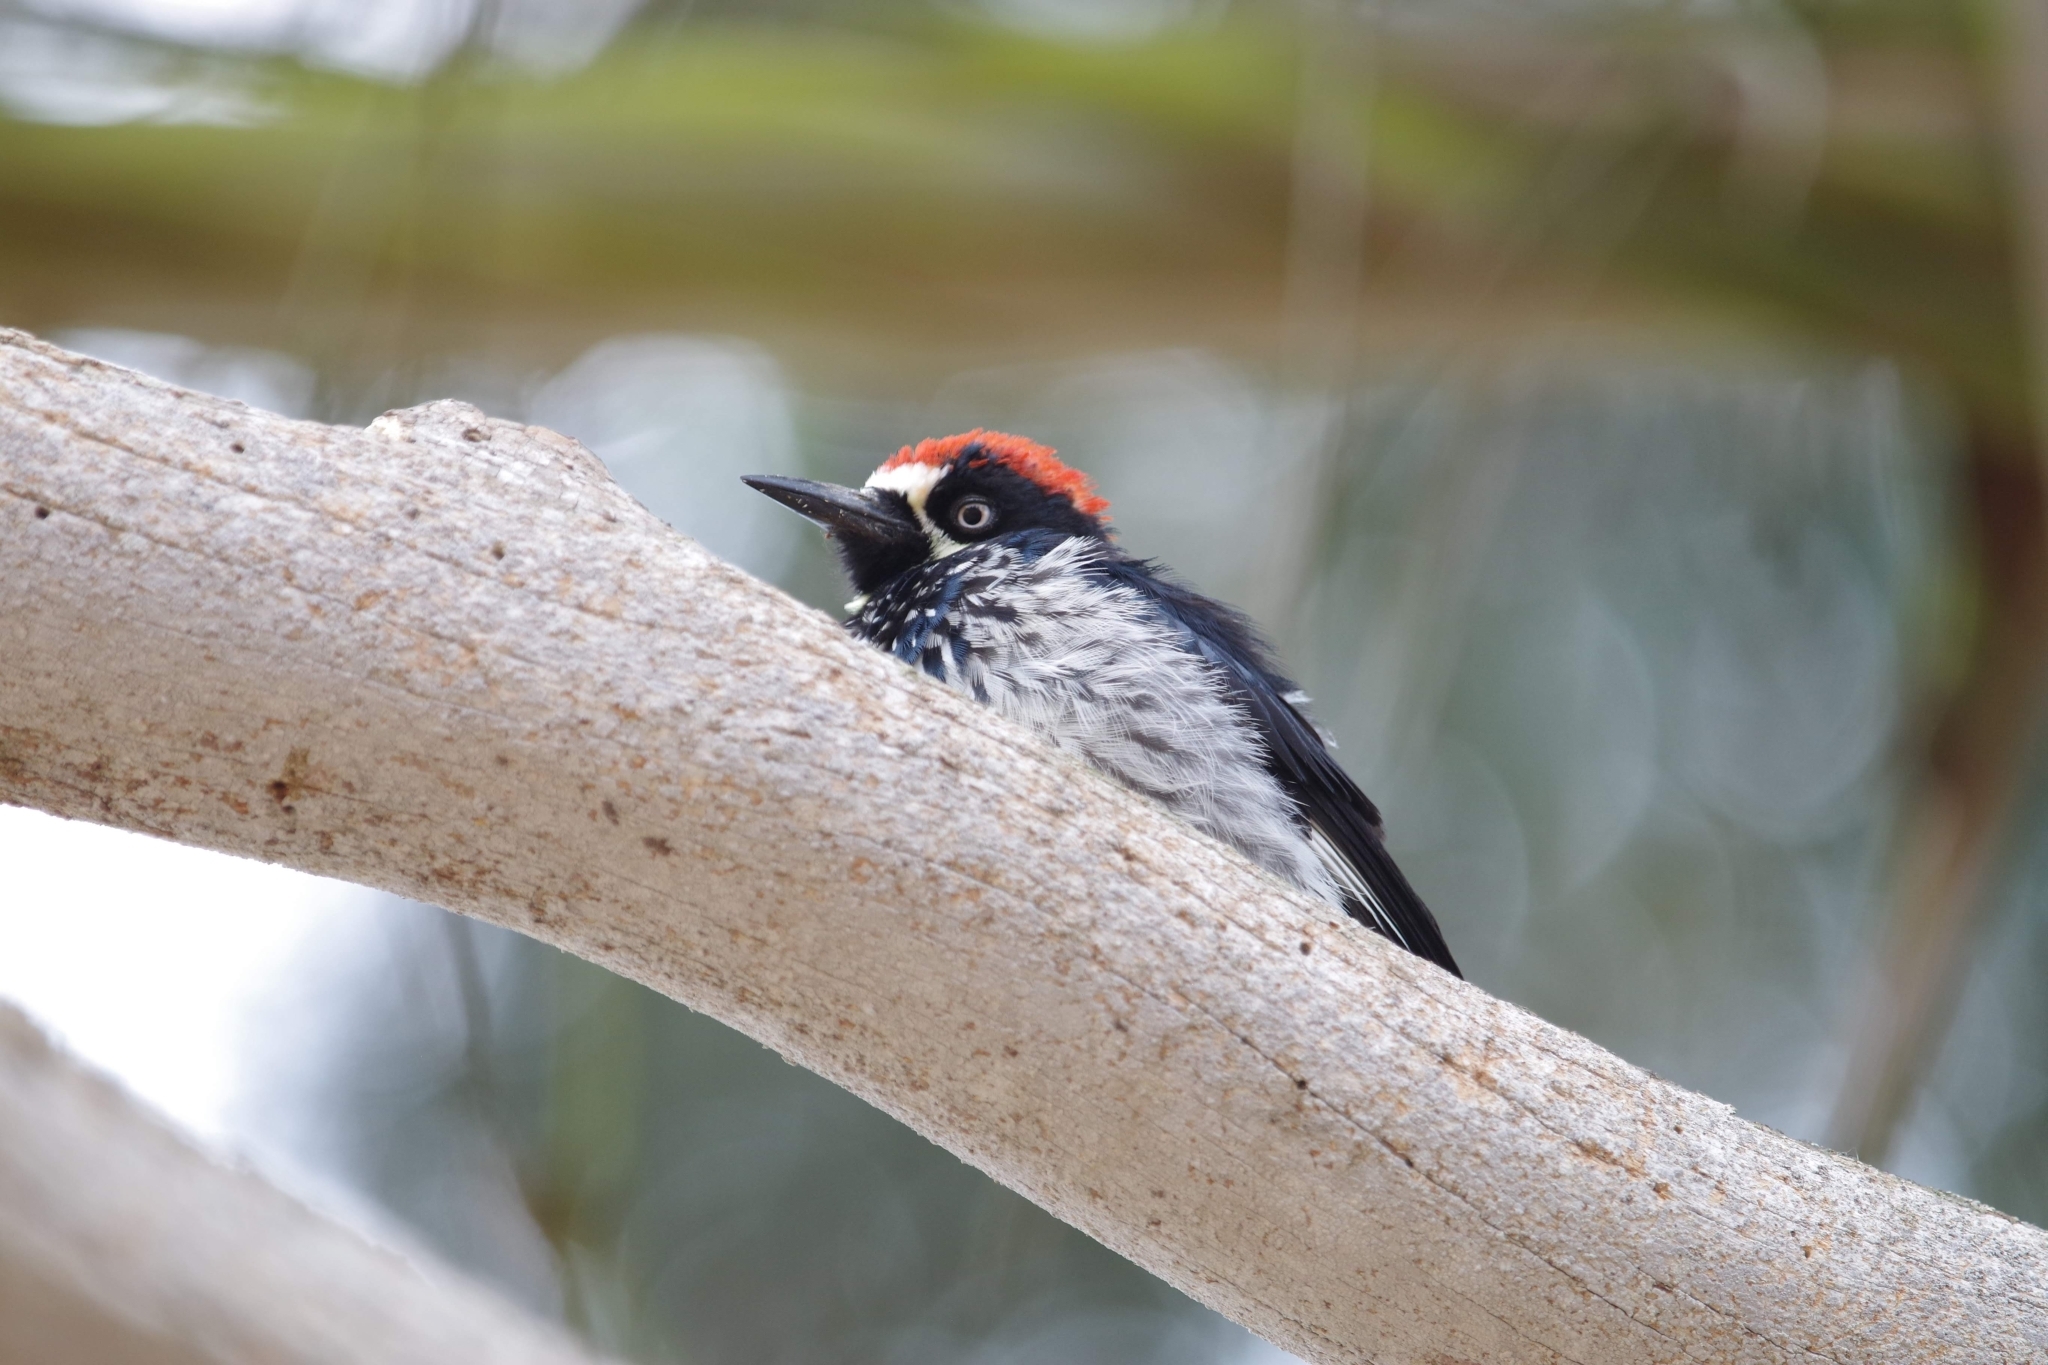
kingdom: Animalia
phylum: Chordata
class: Aves
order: Piciformes
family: Picidae
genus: Melanerpes
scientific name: Melanerpes formicivorus
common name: Acorn woodpecker
